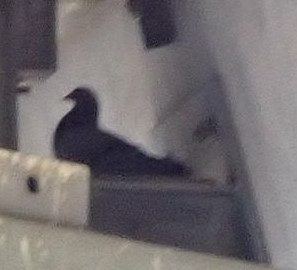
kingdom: Animalia
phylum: Chordata
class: Aves
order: Columbiformes
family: Columbidae
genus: Columba
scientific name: Columba livia
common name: Rock pigeon
